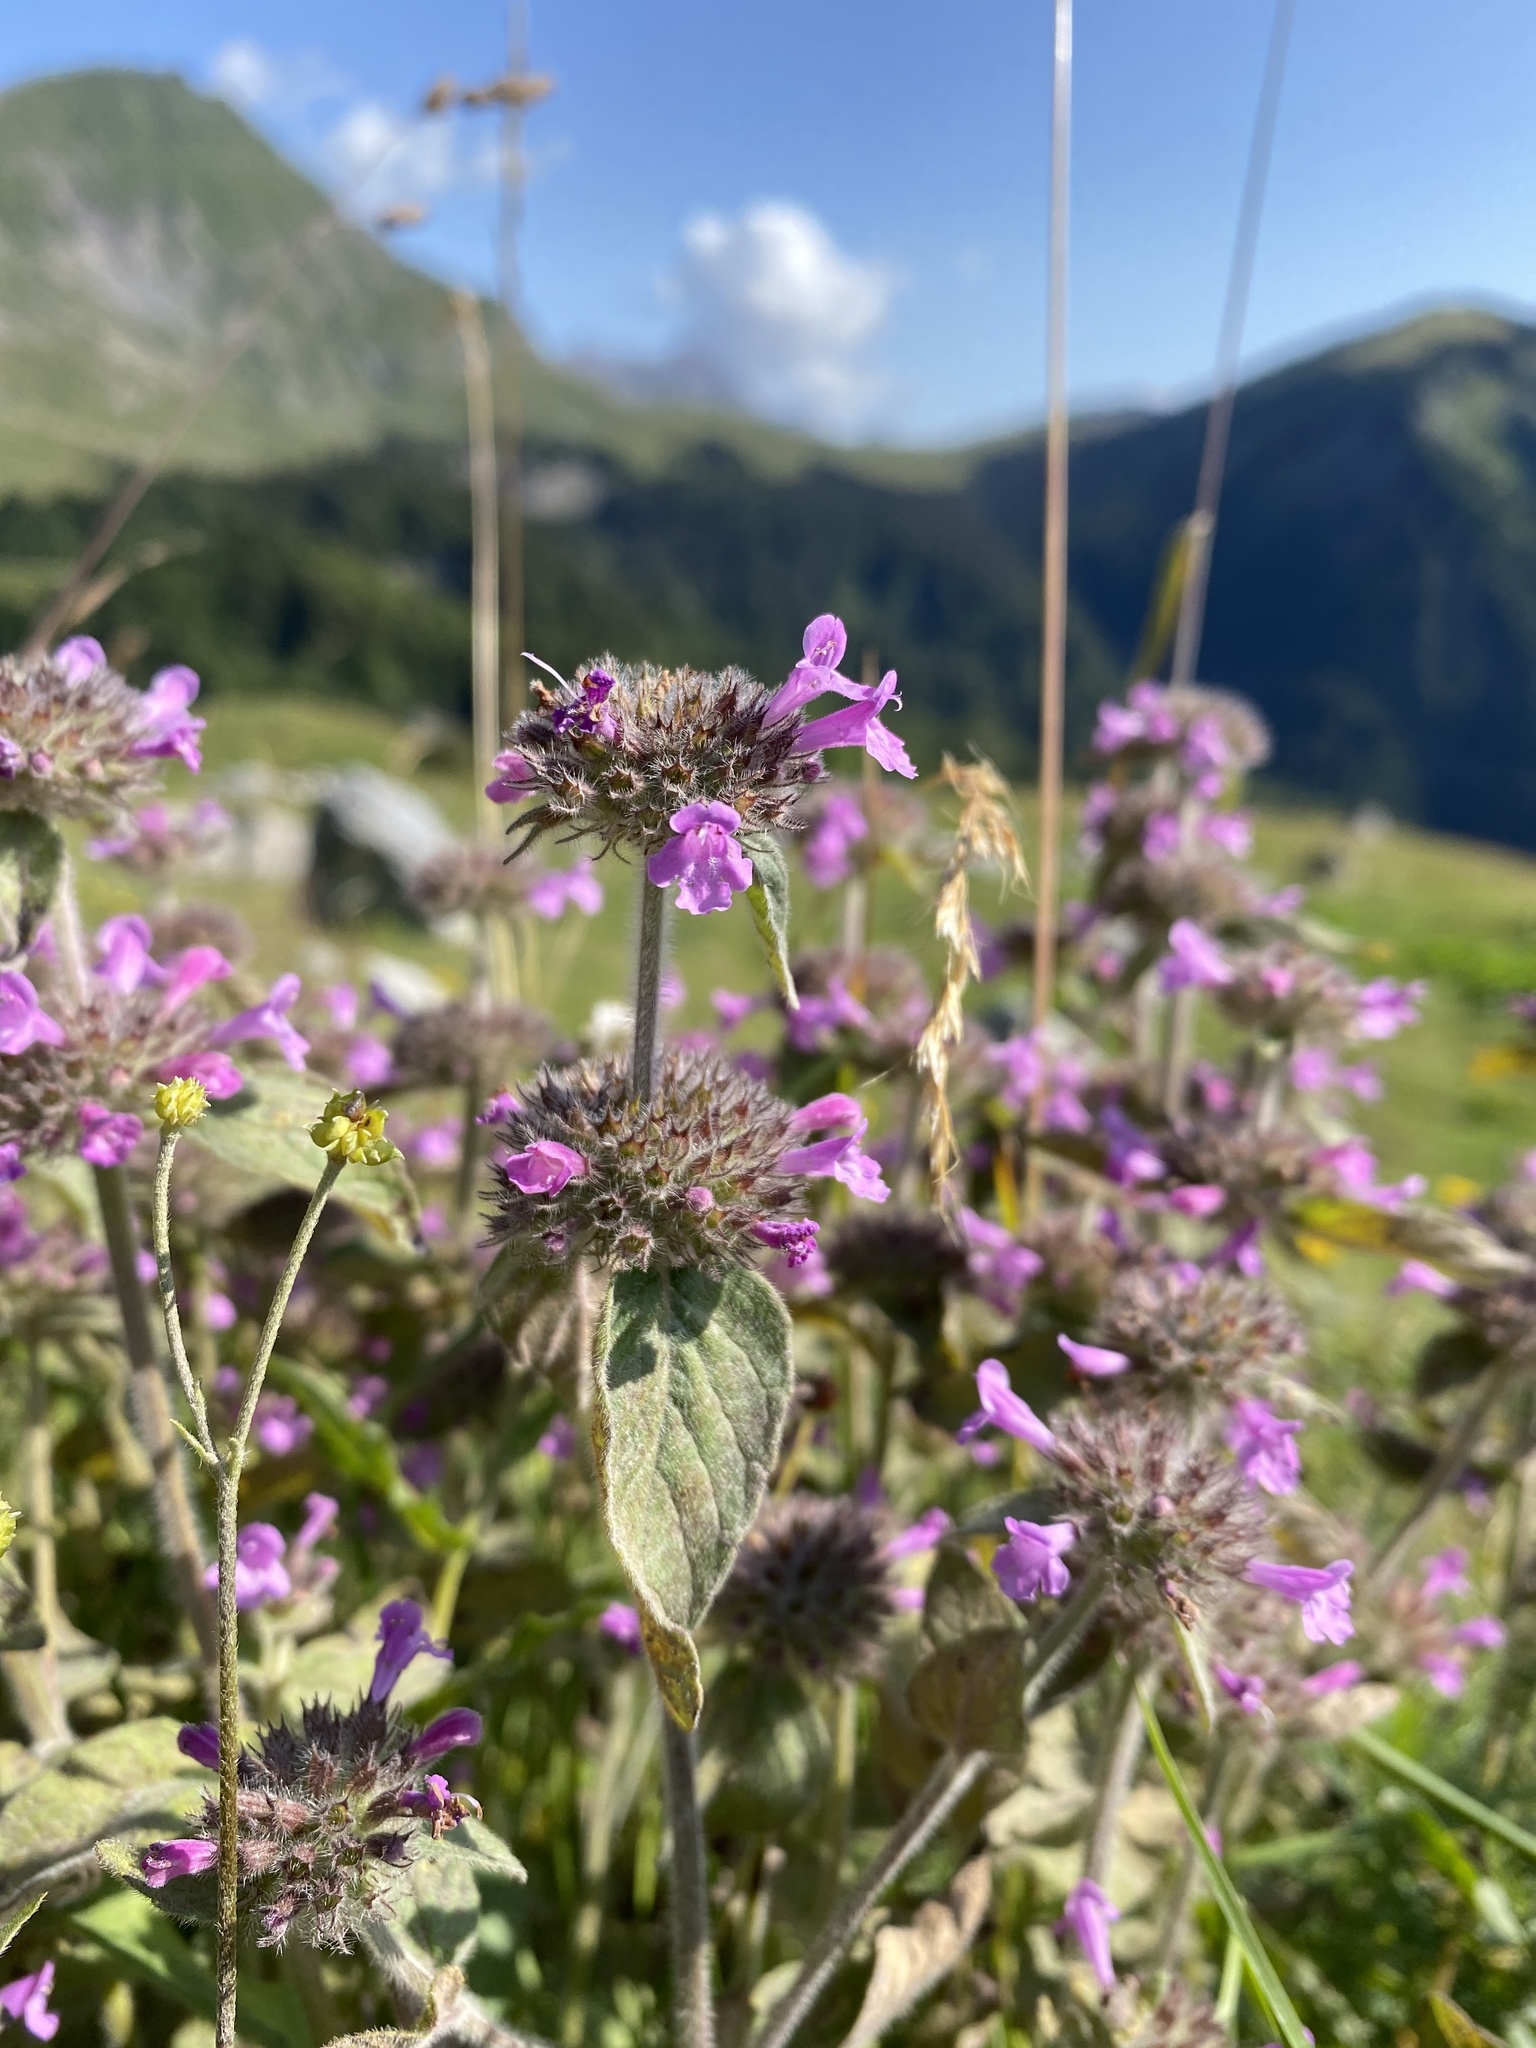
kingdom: Plantae
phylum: Tracheophyta
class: Magnoliopsida
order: Lamiales
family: Lamiaceae
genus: Clinopodium
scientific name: Clinopodium vulgare
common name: Wild basil
